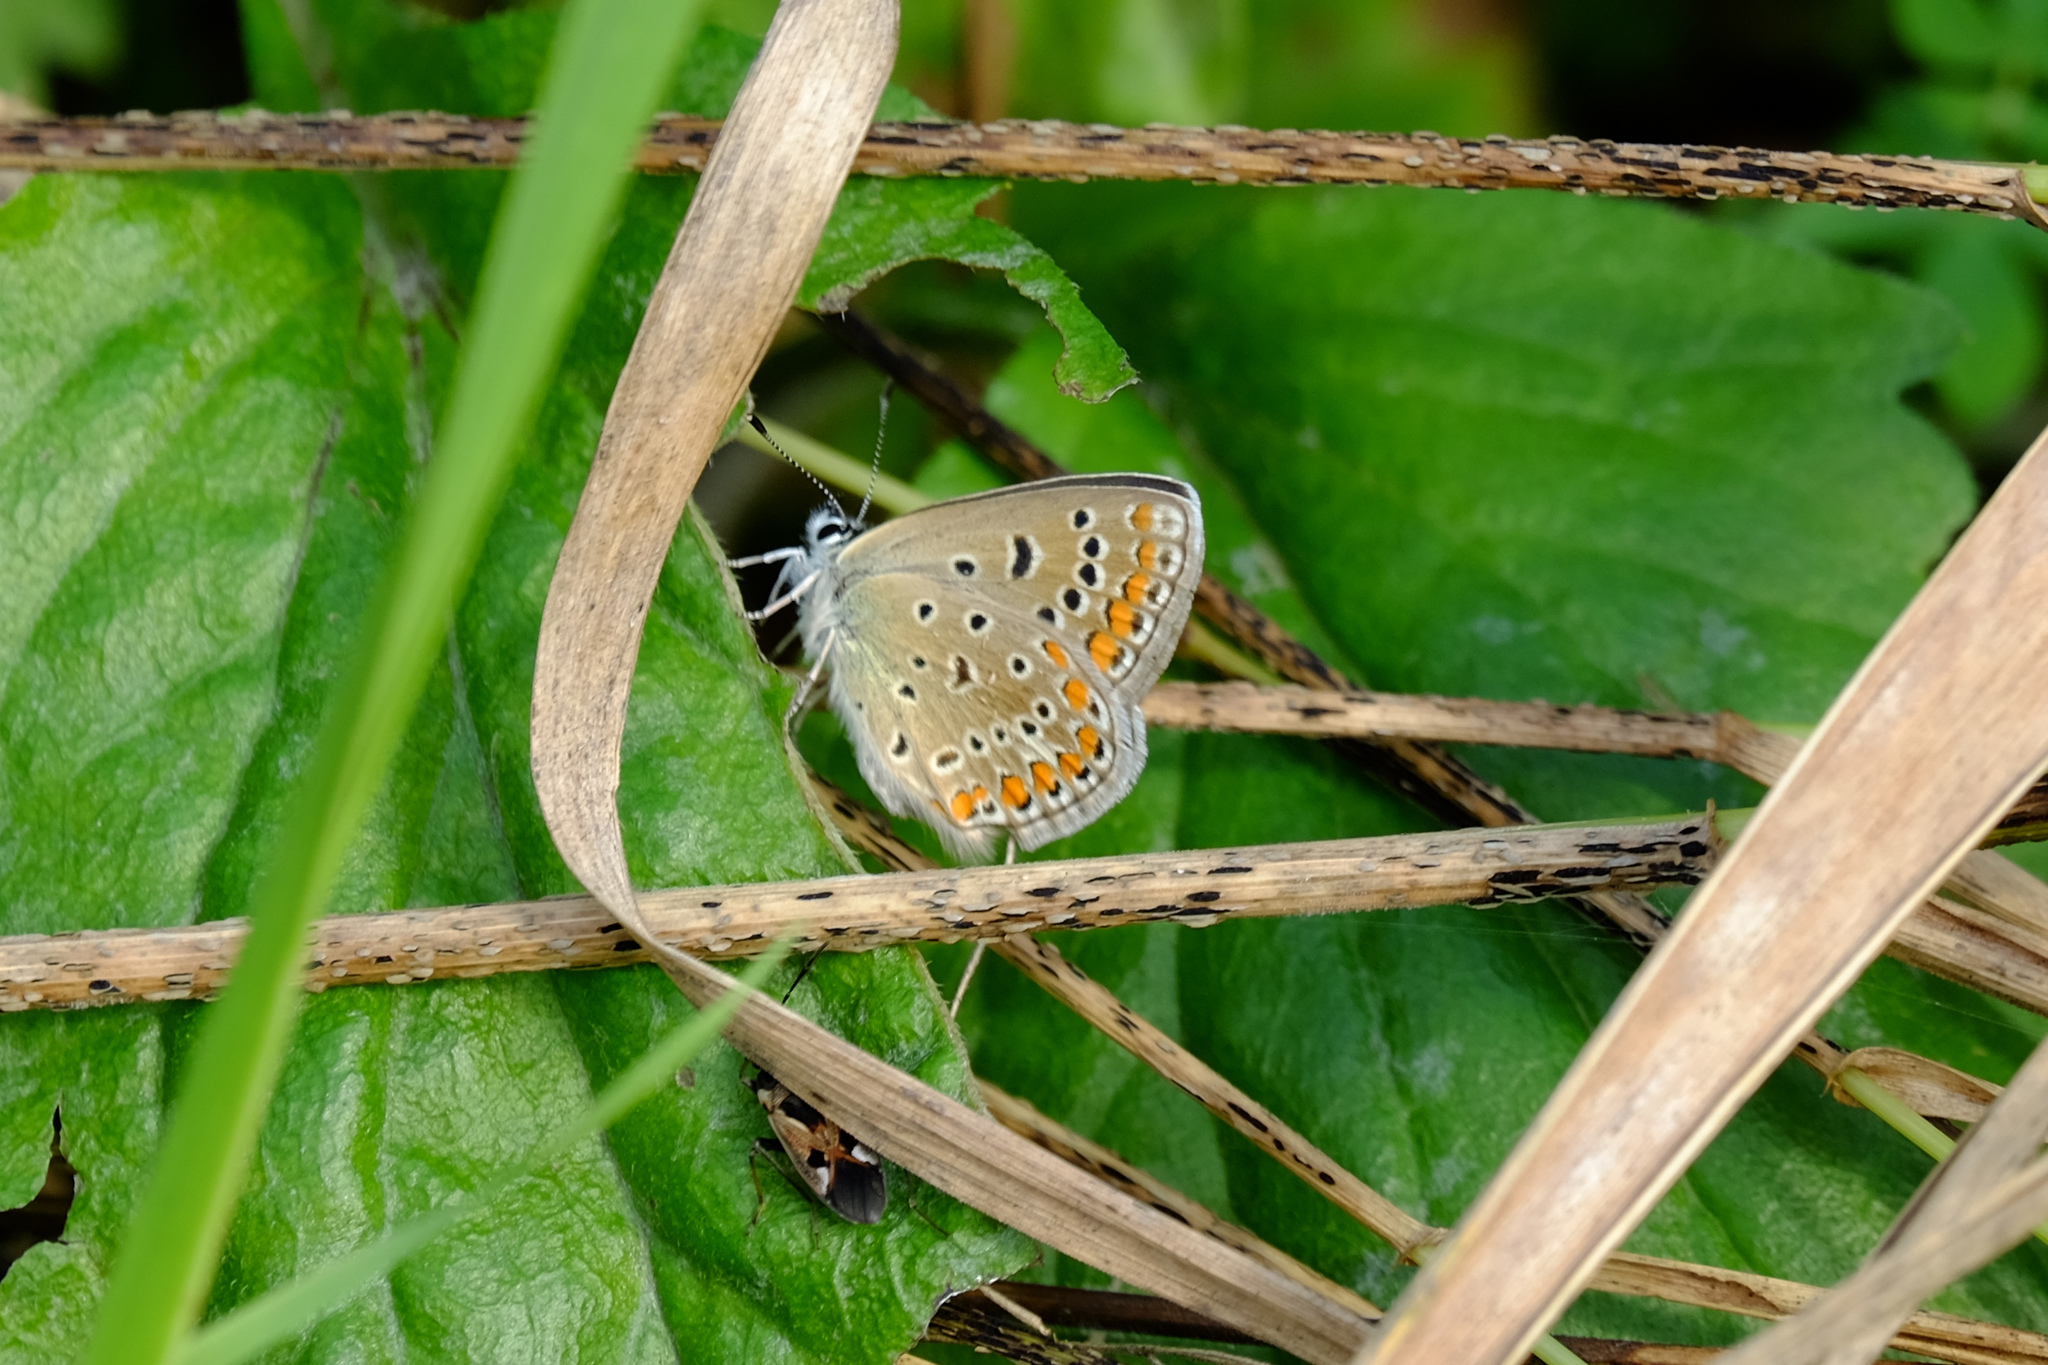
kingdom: Animalia
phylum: Arthropoda
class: Insecta
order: Lepidoptera
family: Lycaenidae
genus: Polyommatus
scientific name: Polyommatus icarus
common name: Common blue
